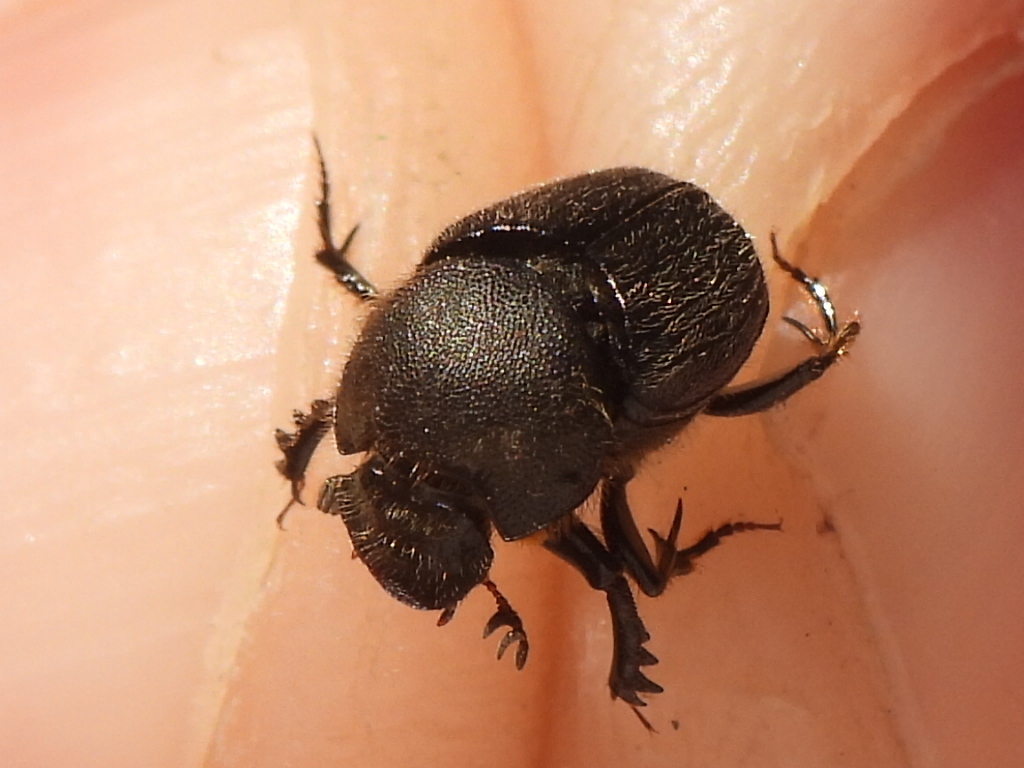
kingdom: Animalia
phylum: Arthropoda
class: Insecta
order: Coleoptera
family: Scarabaeidae
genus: Onthophagus
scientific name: Onthophagus hecate
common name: Scooped scarab
